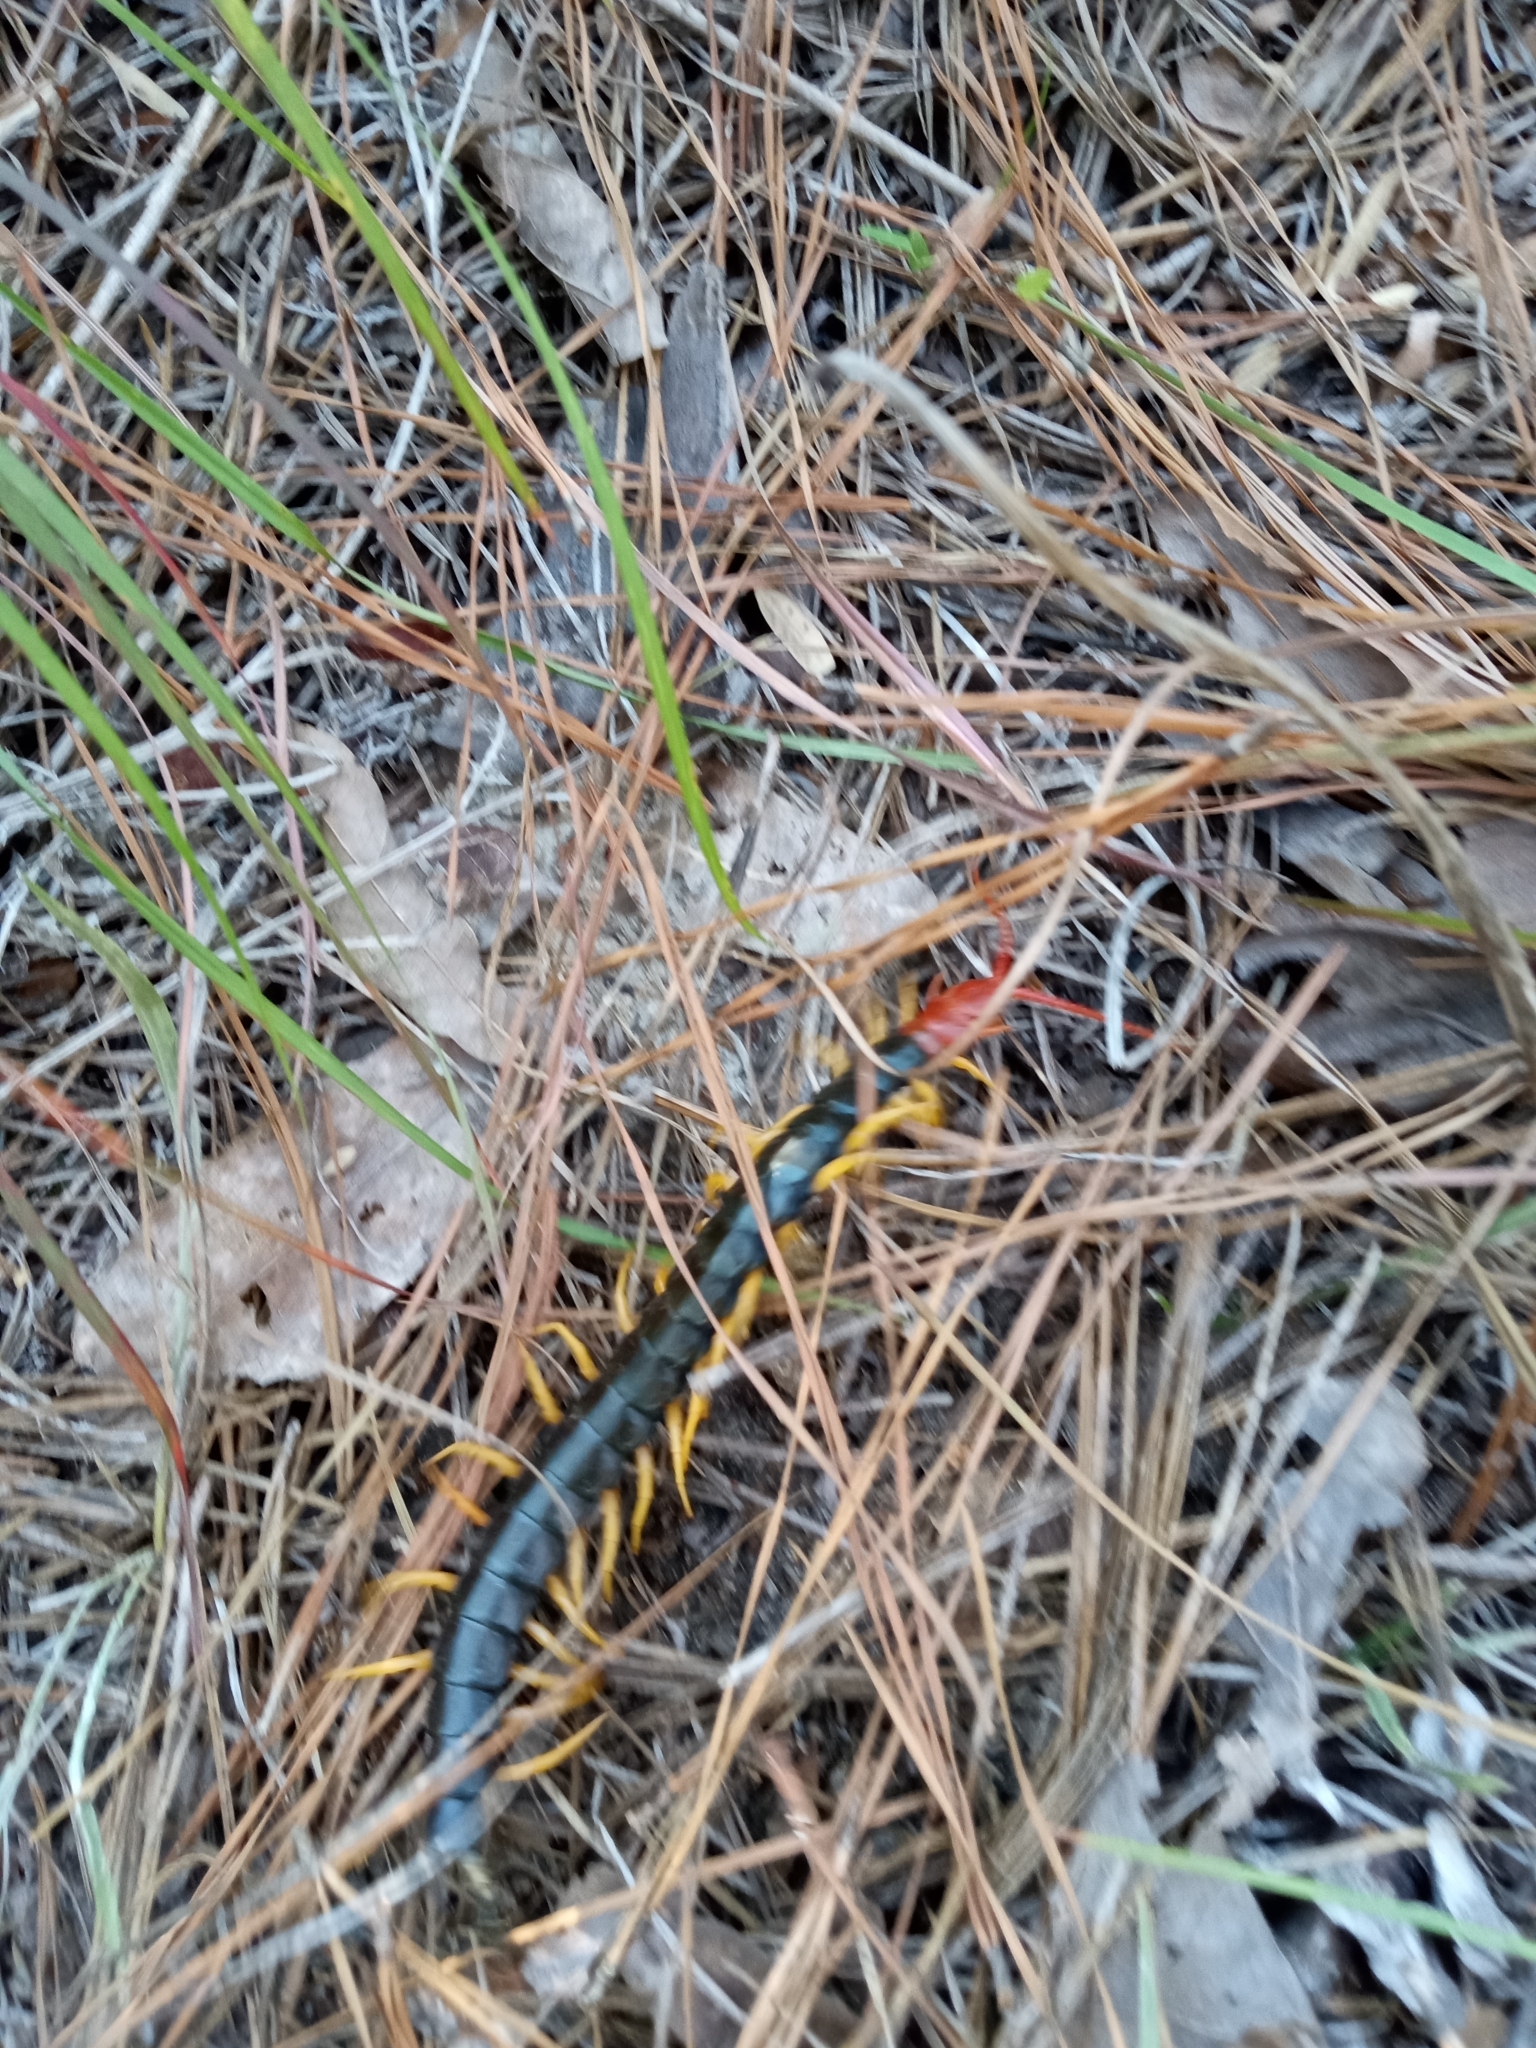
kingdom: Animalia
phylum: Arthropoda
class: Chilopoda
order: Scolopendromorpha
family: Scolopendridae
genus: Scolopendra
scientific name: Scolopendra heros
